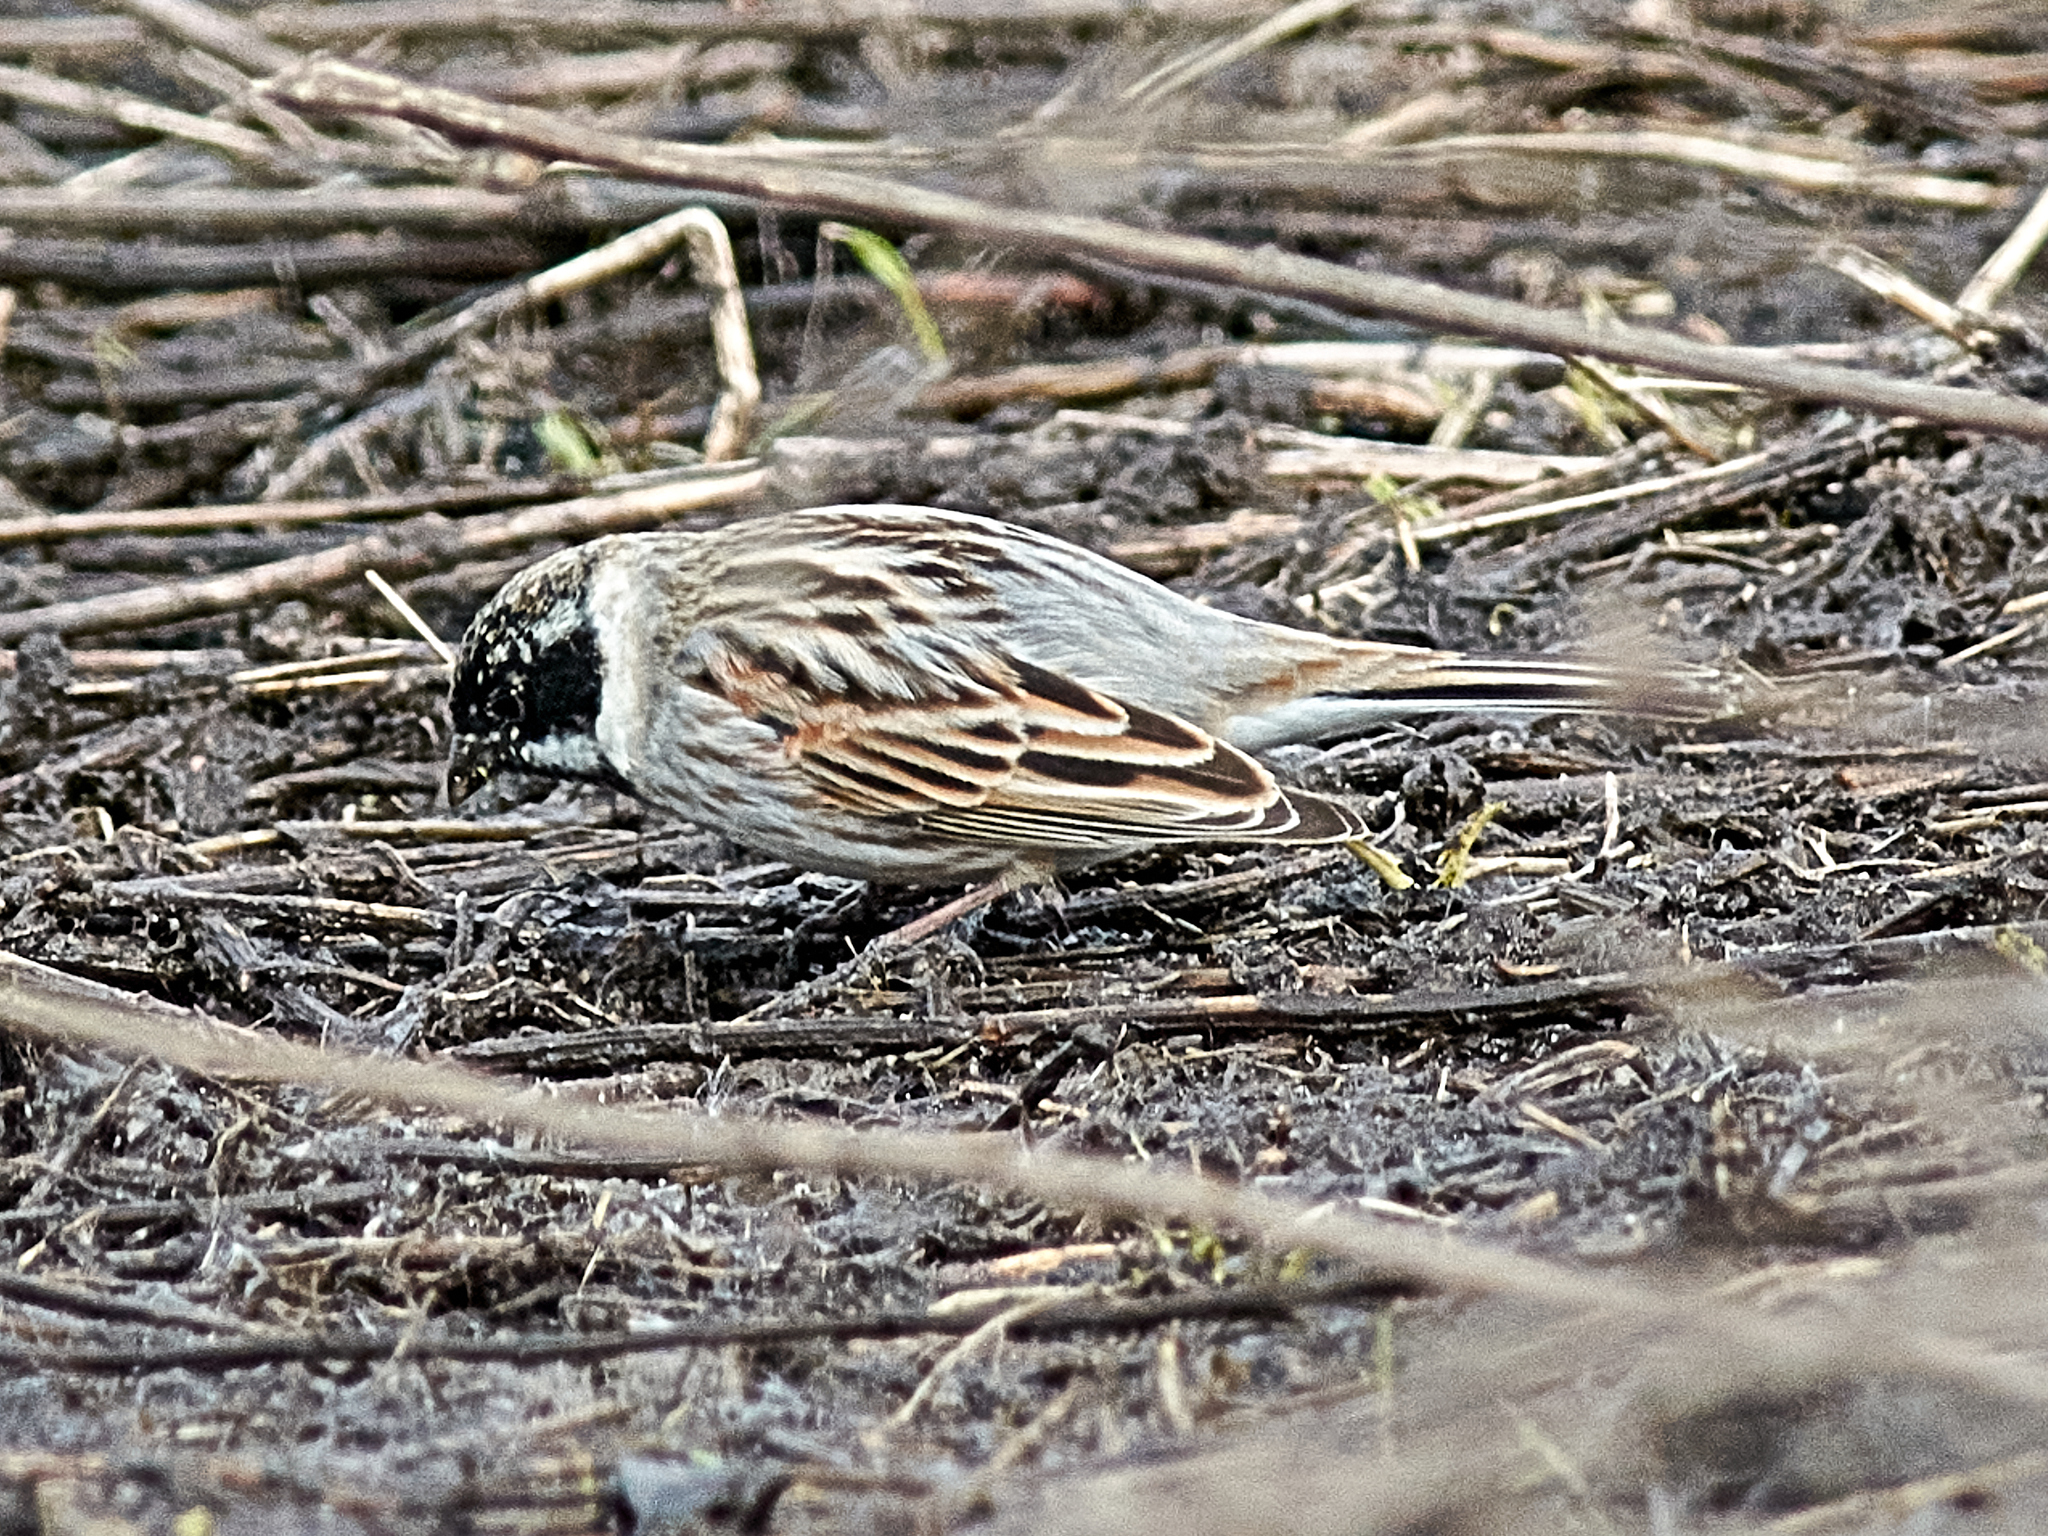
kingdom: Animalia
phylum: Chordata
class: Aves
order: Passeriformes
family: Emberizidae
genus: Emberiza
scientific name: Emberiza schoeniclus
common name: Reed bunting
